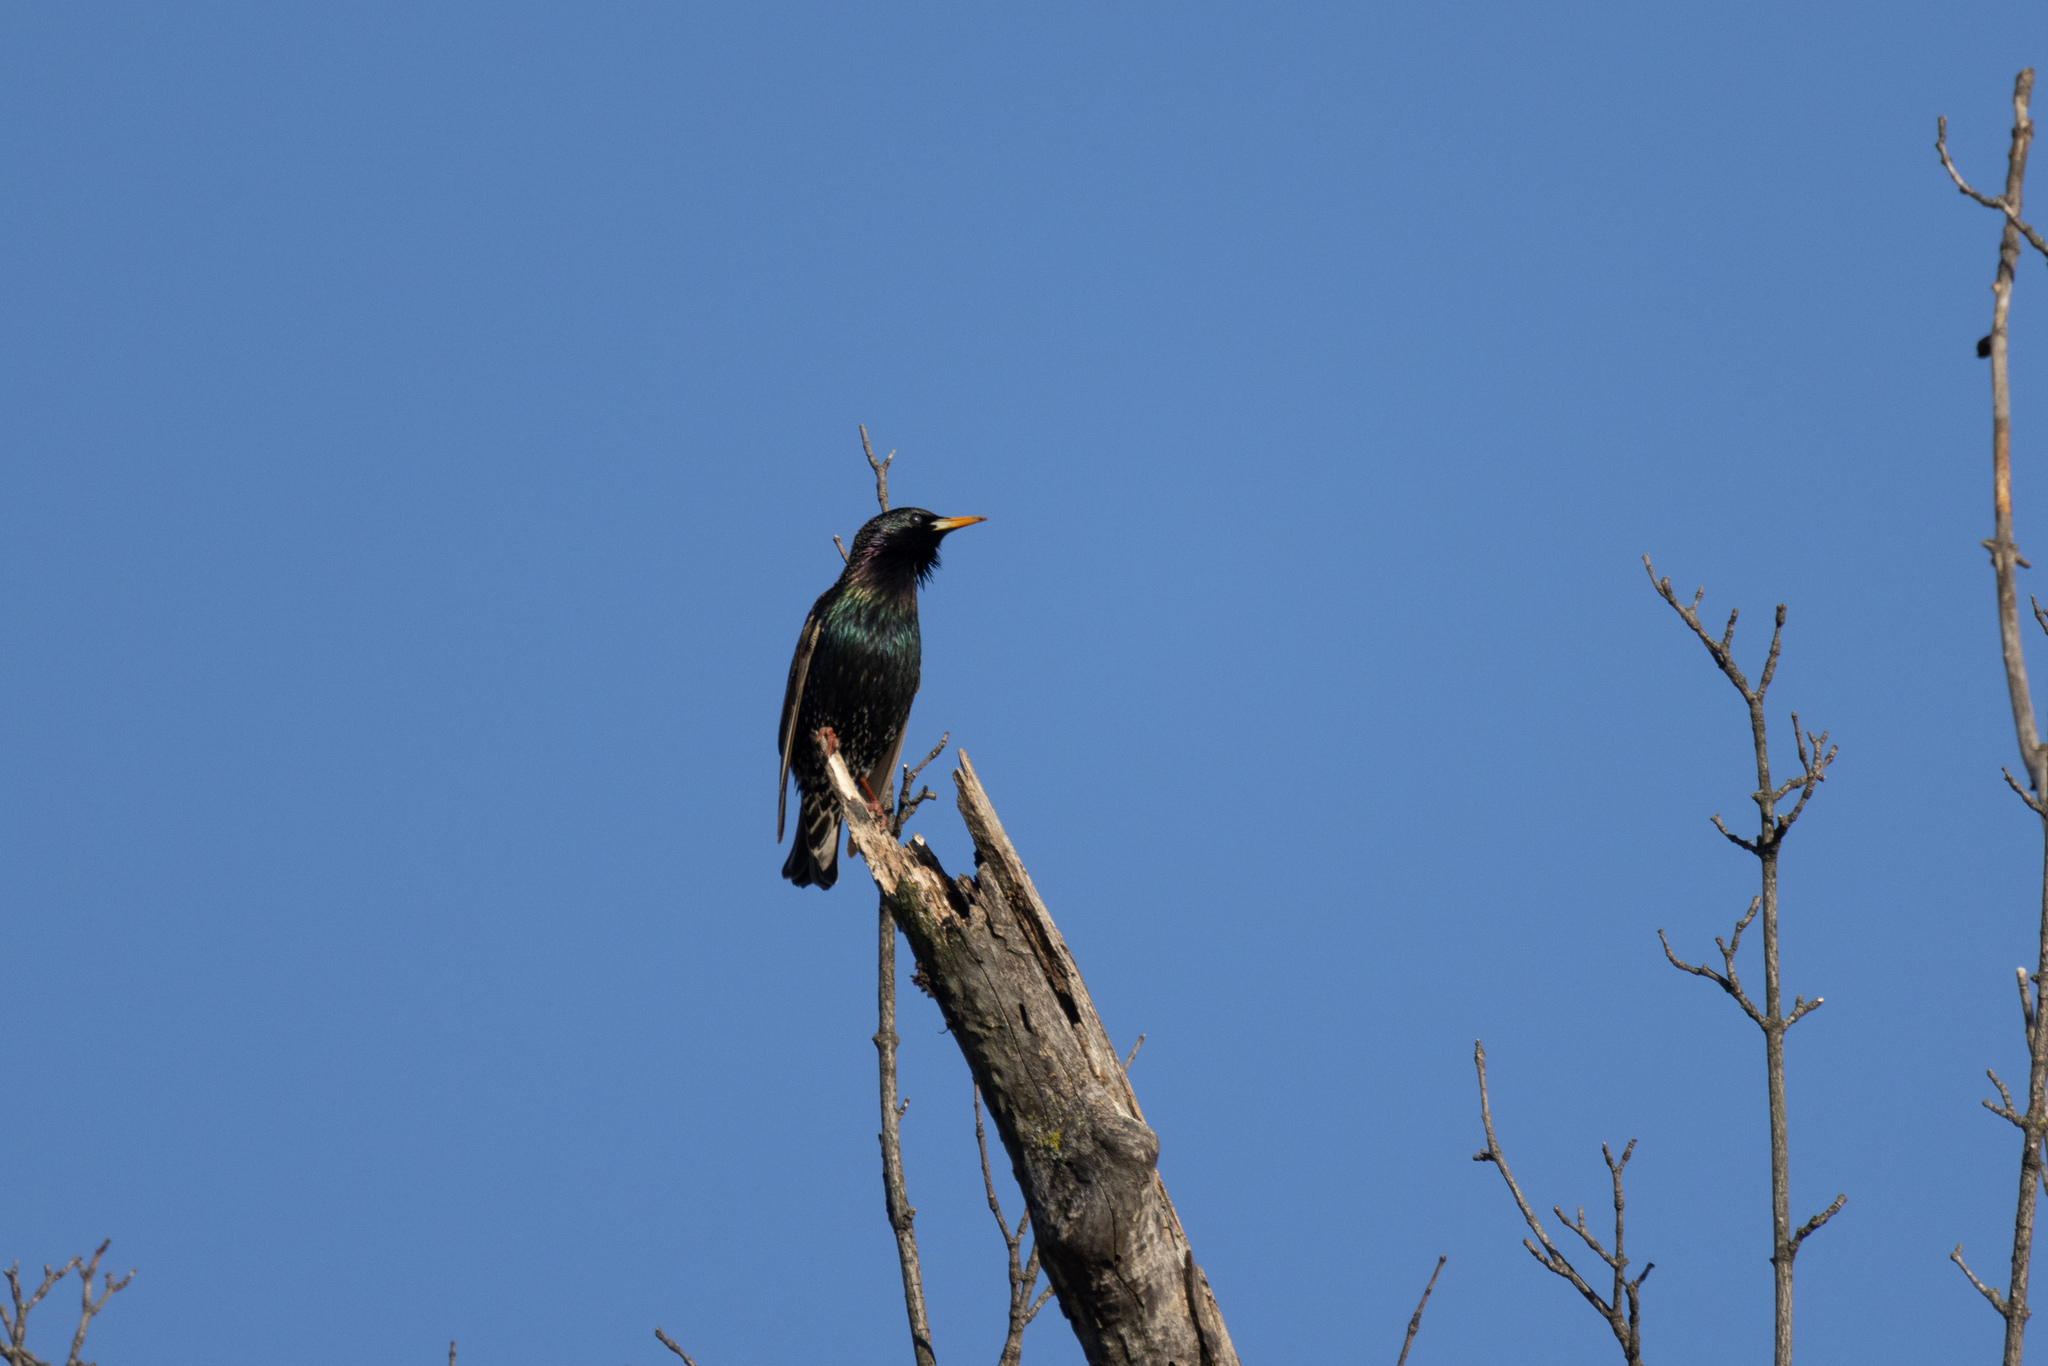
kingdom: Animalia
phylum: Chordata
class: Aves
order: Passeriformes
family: Sturnidae
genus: Sturnus
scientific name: Sturnus vulgaris
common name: Common starling
